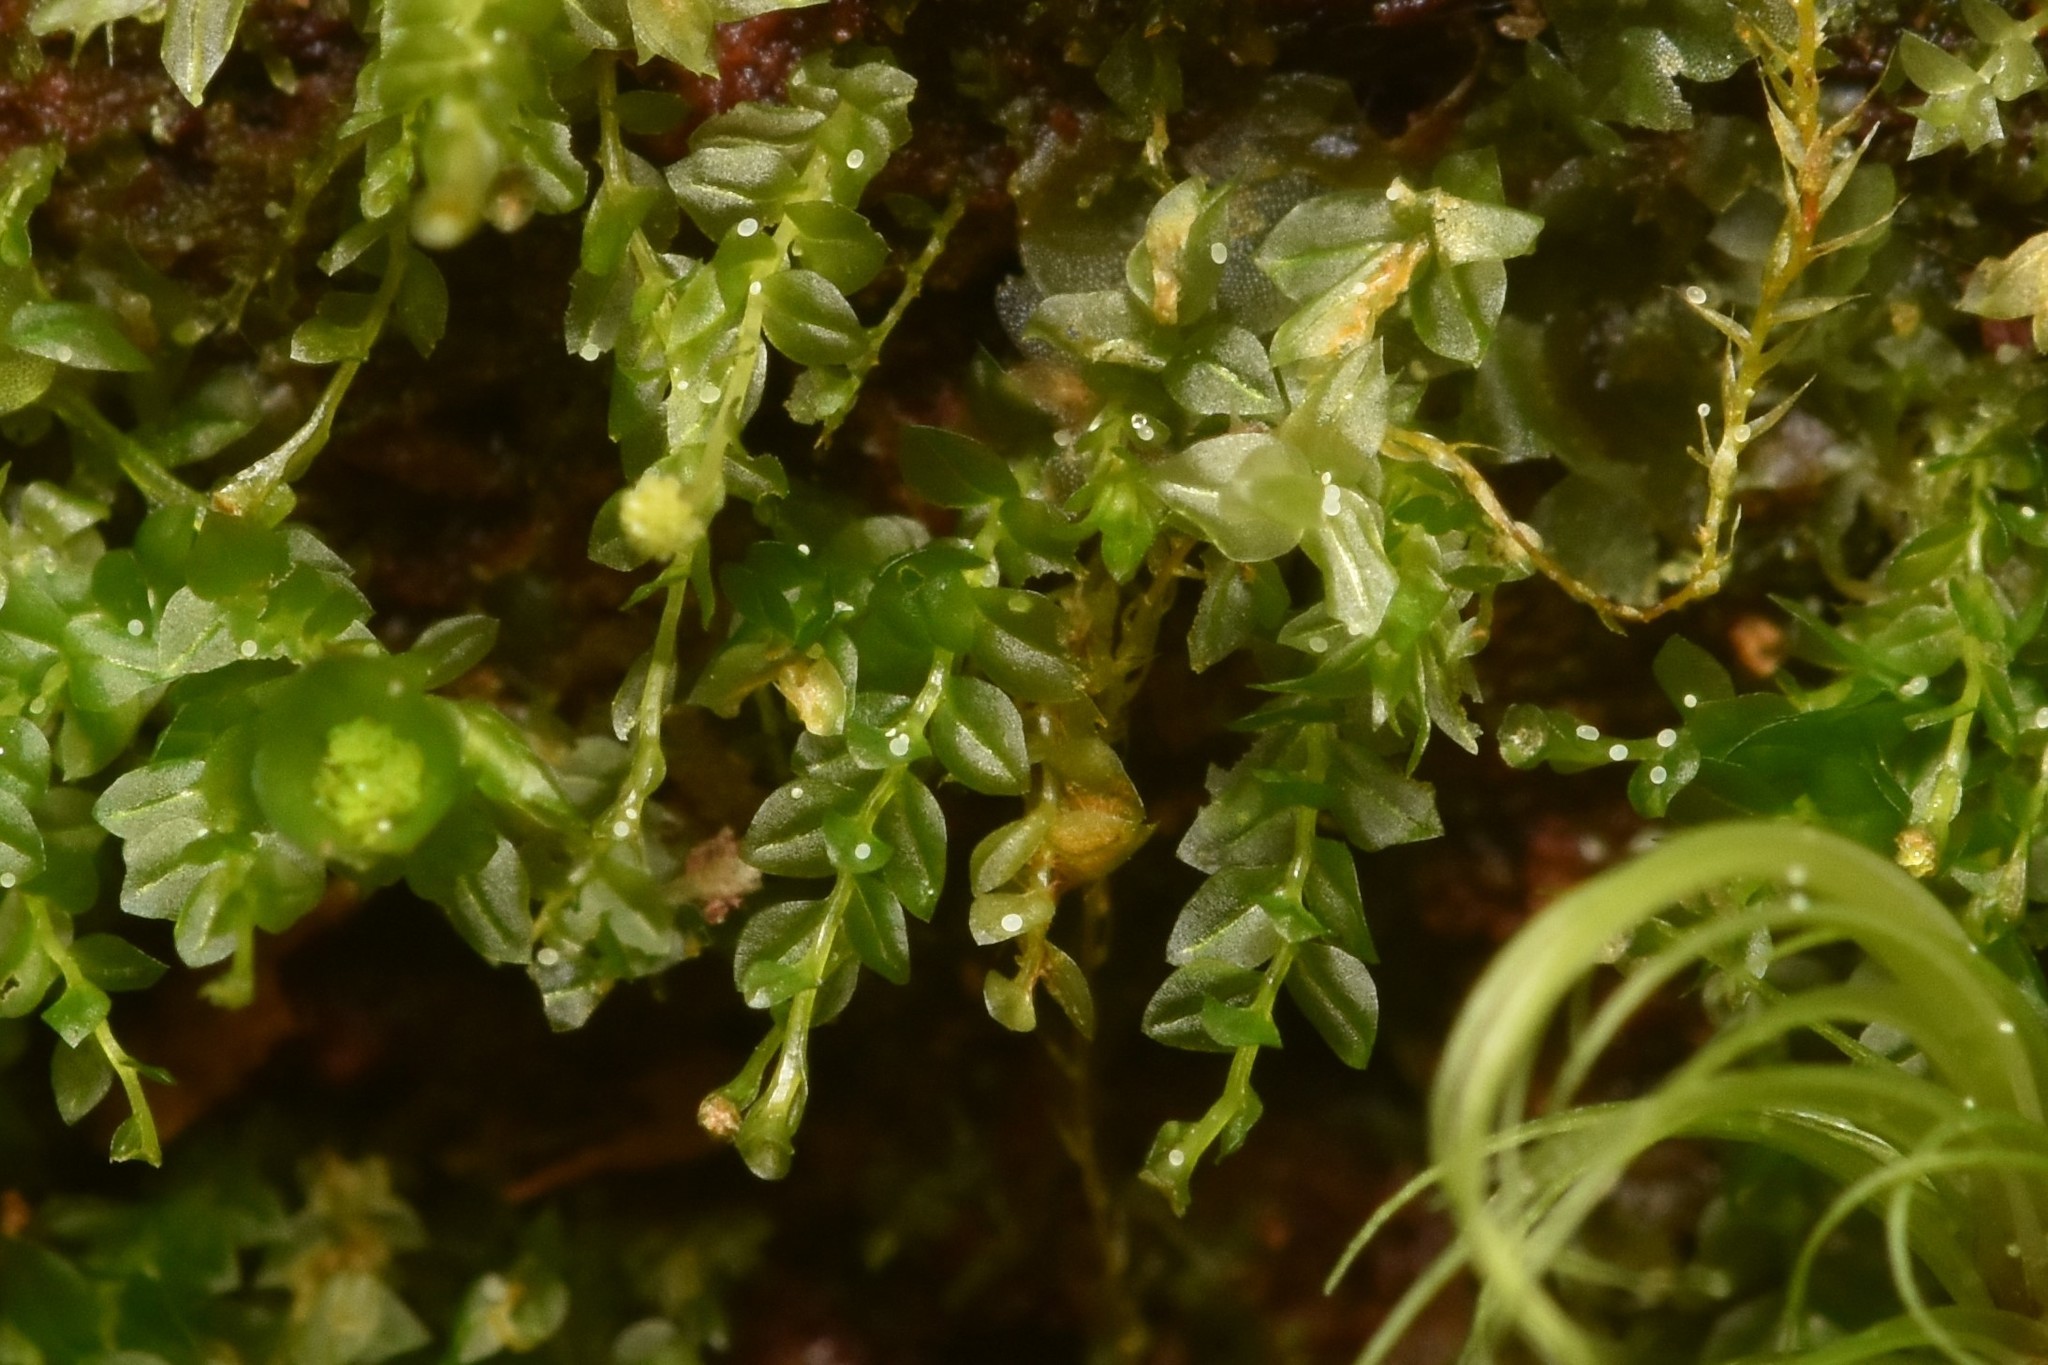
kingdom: Plantae
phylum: Bryophyta
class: Polytrichopsida
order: Tetraphidales
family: Tetraphidaceae
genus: Tetraphis
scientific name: Tetraphis pellucida
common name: Common four-toothed moss
